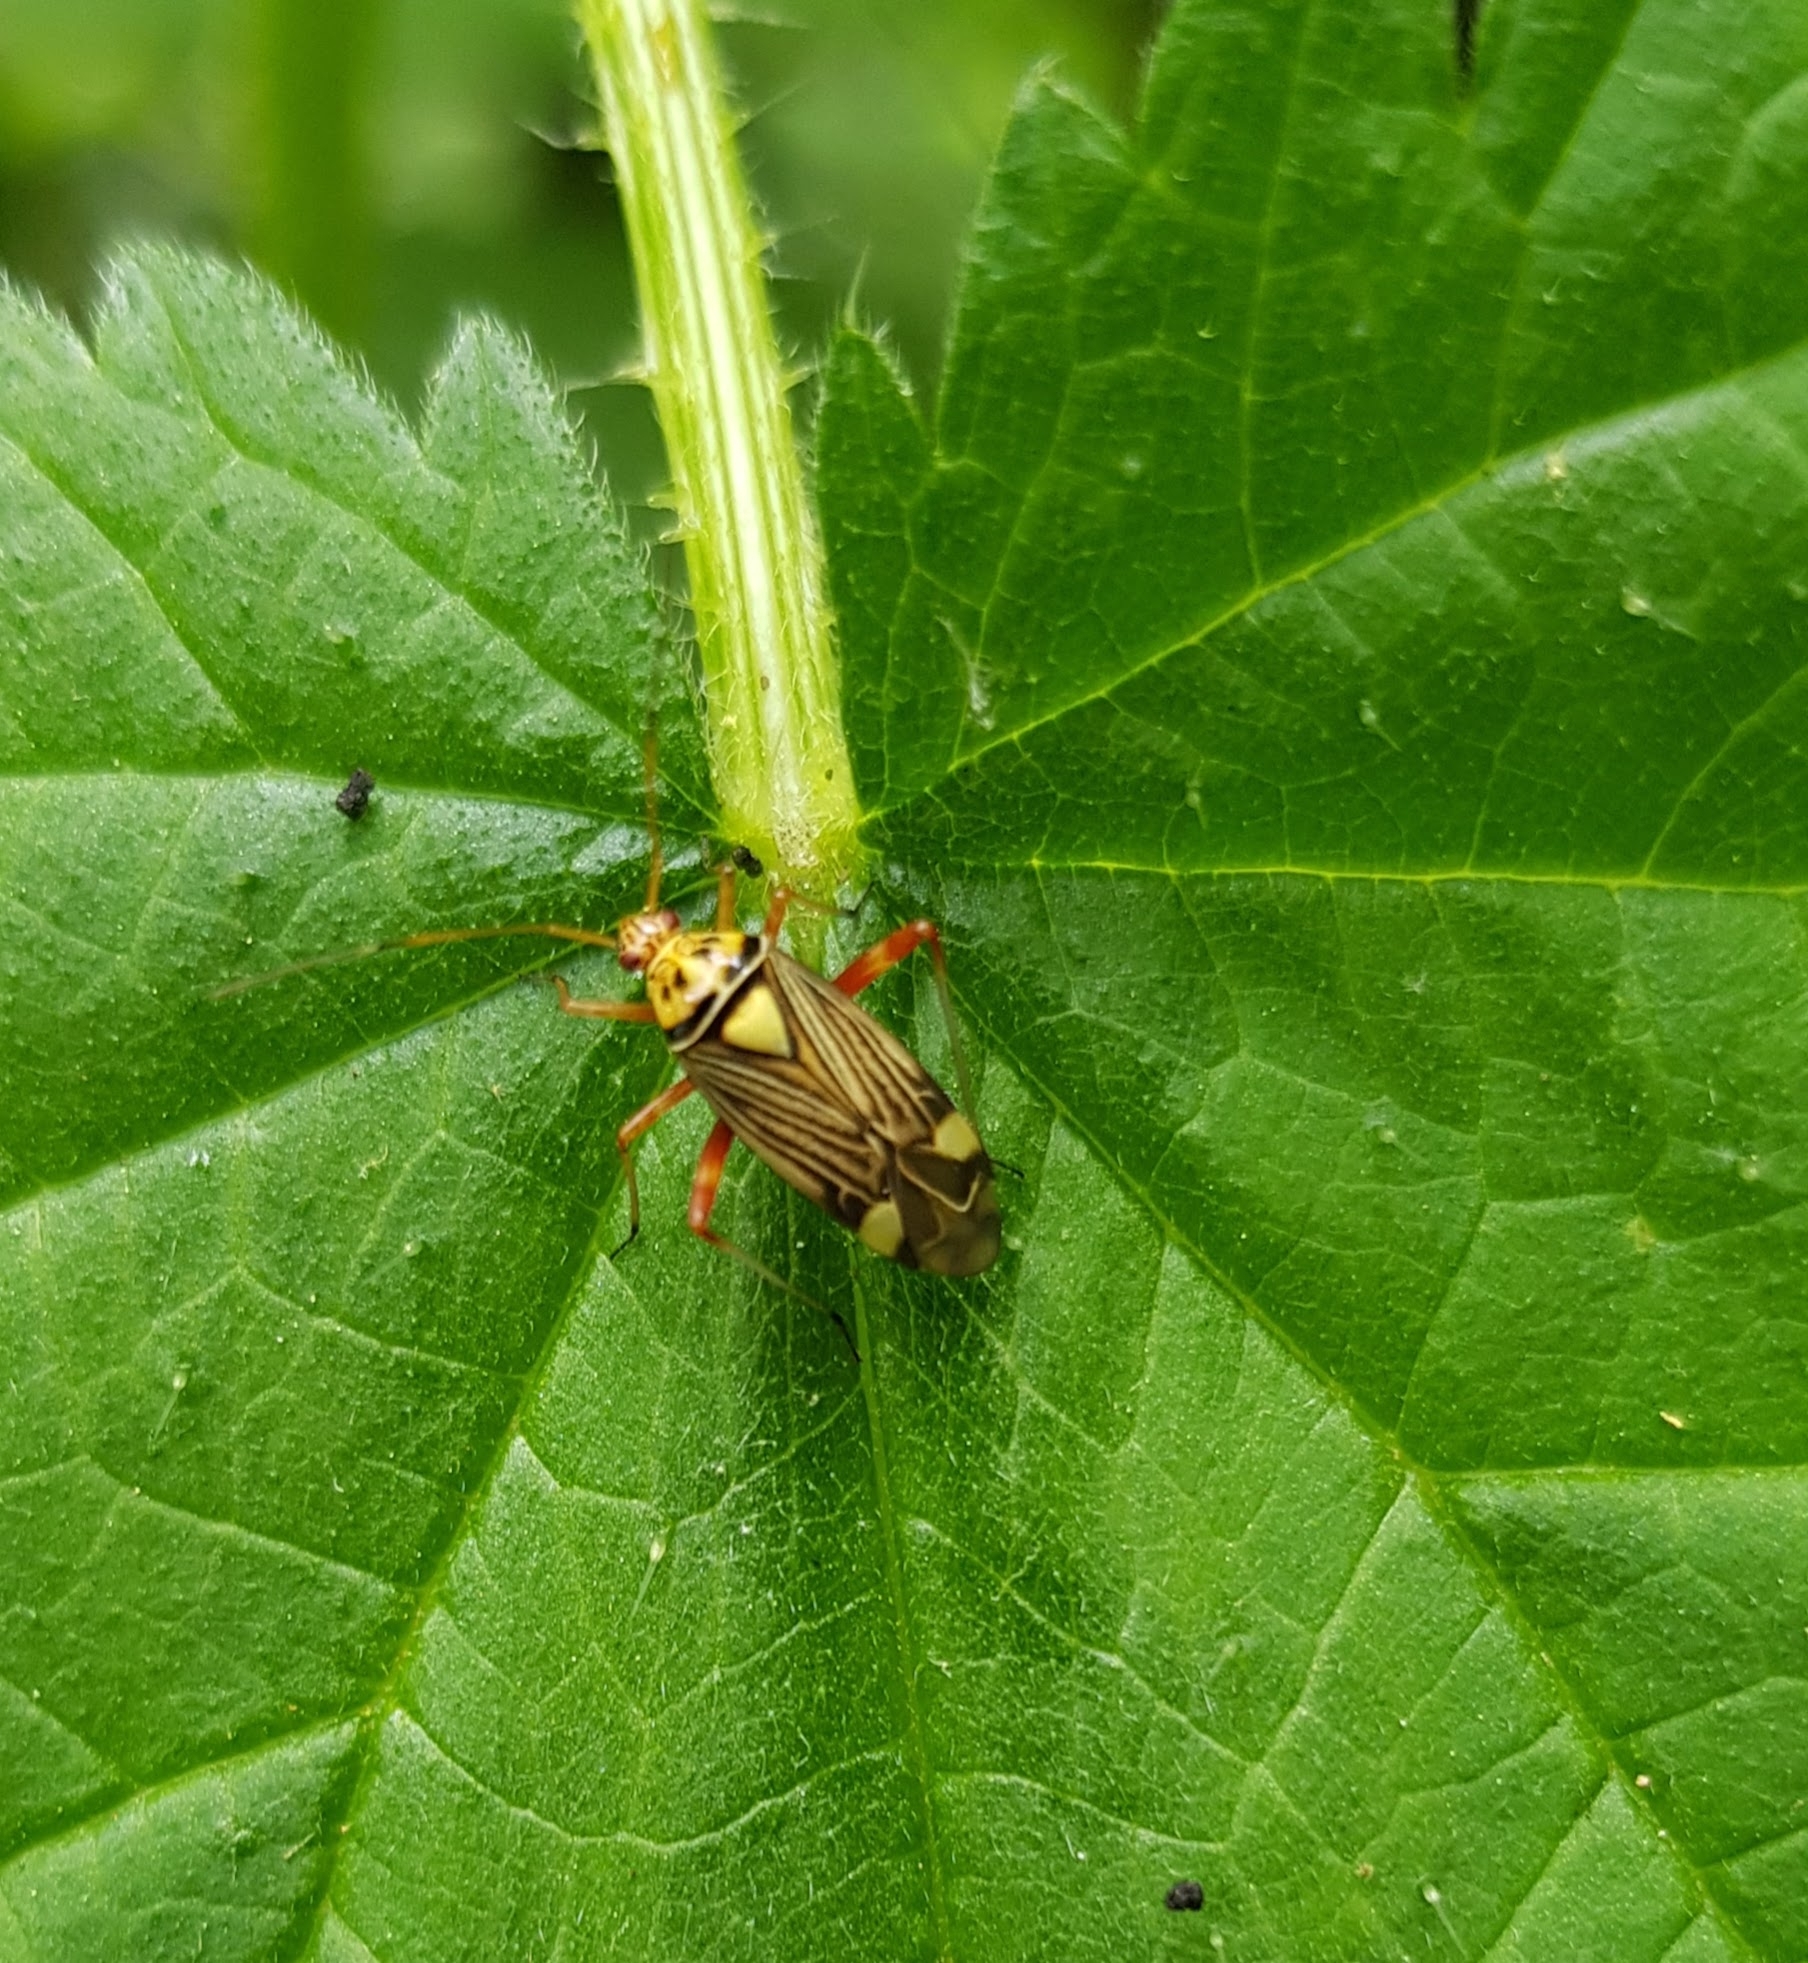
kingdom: Animalia
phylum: Arthropoda
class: Insecta
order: Hemiptera
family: Miridae
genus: Rhabdomiris
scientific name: Rhabdomiris striatellus
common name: Plant bug
